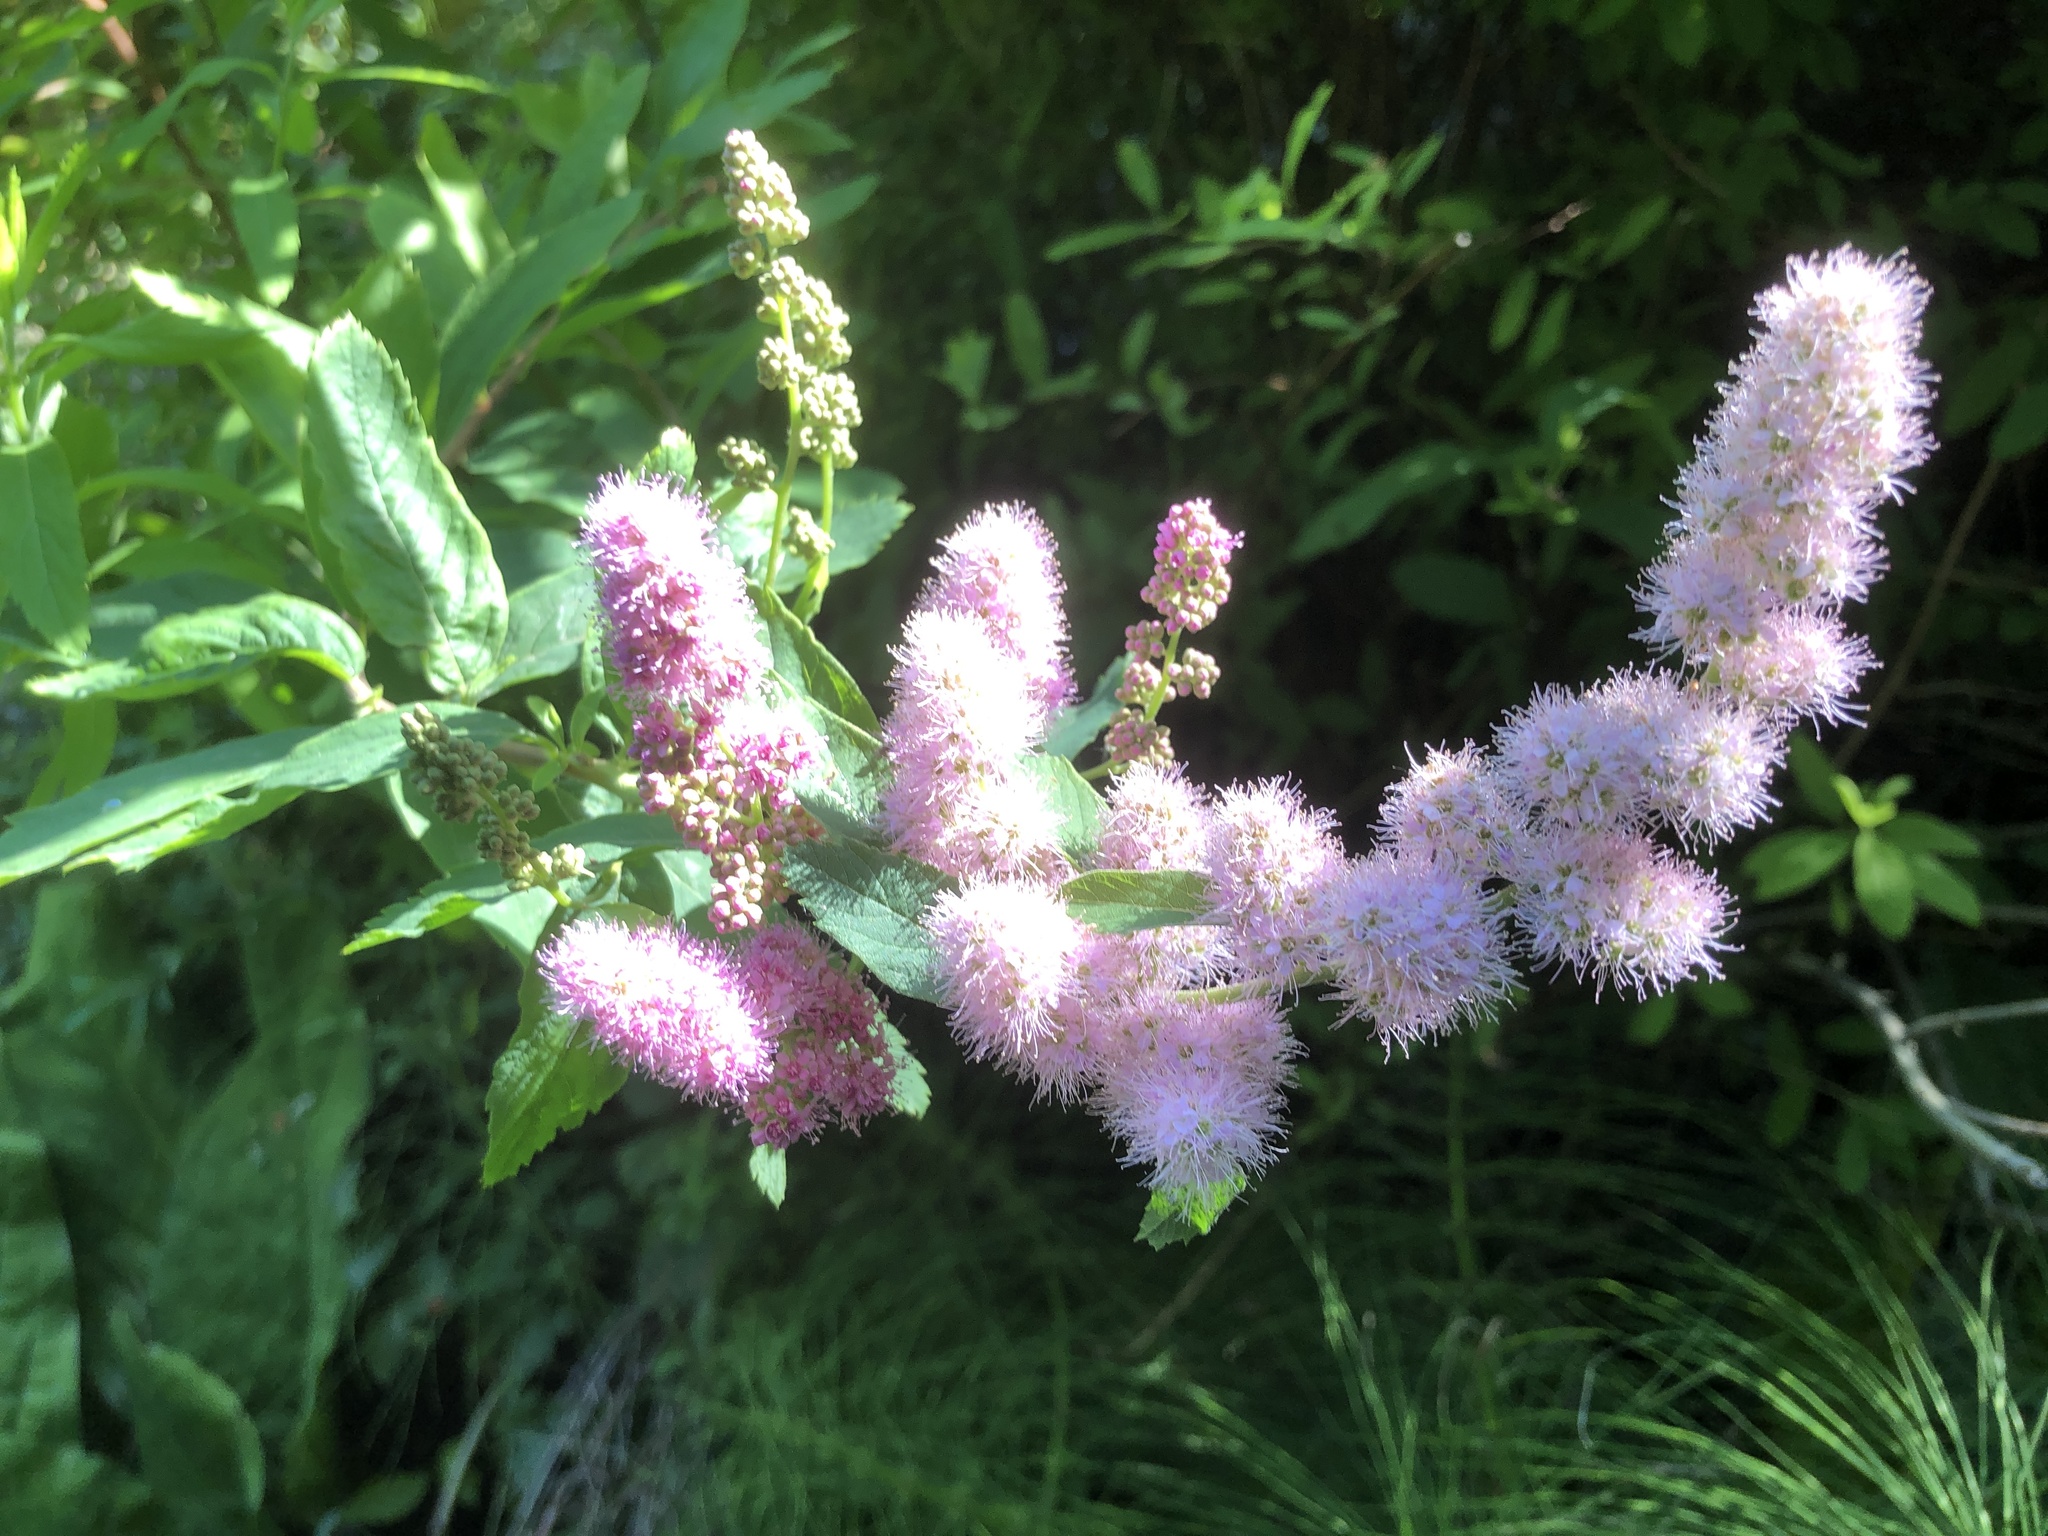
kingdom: Plantae
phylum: Tracheophyta
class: Magnoliopsida
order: Rosales
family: Rosaceae
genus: Spiraea
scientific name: Spiraea douglasii
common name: Steeplebush
